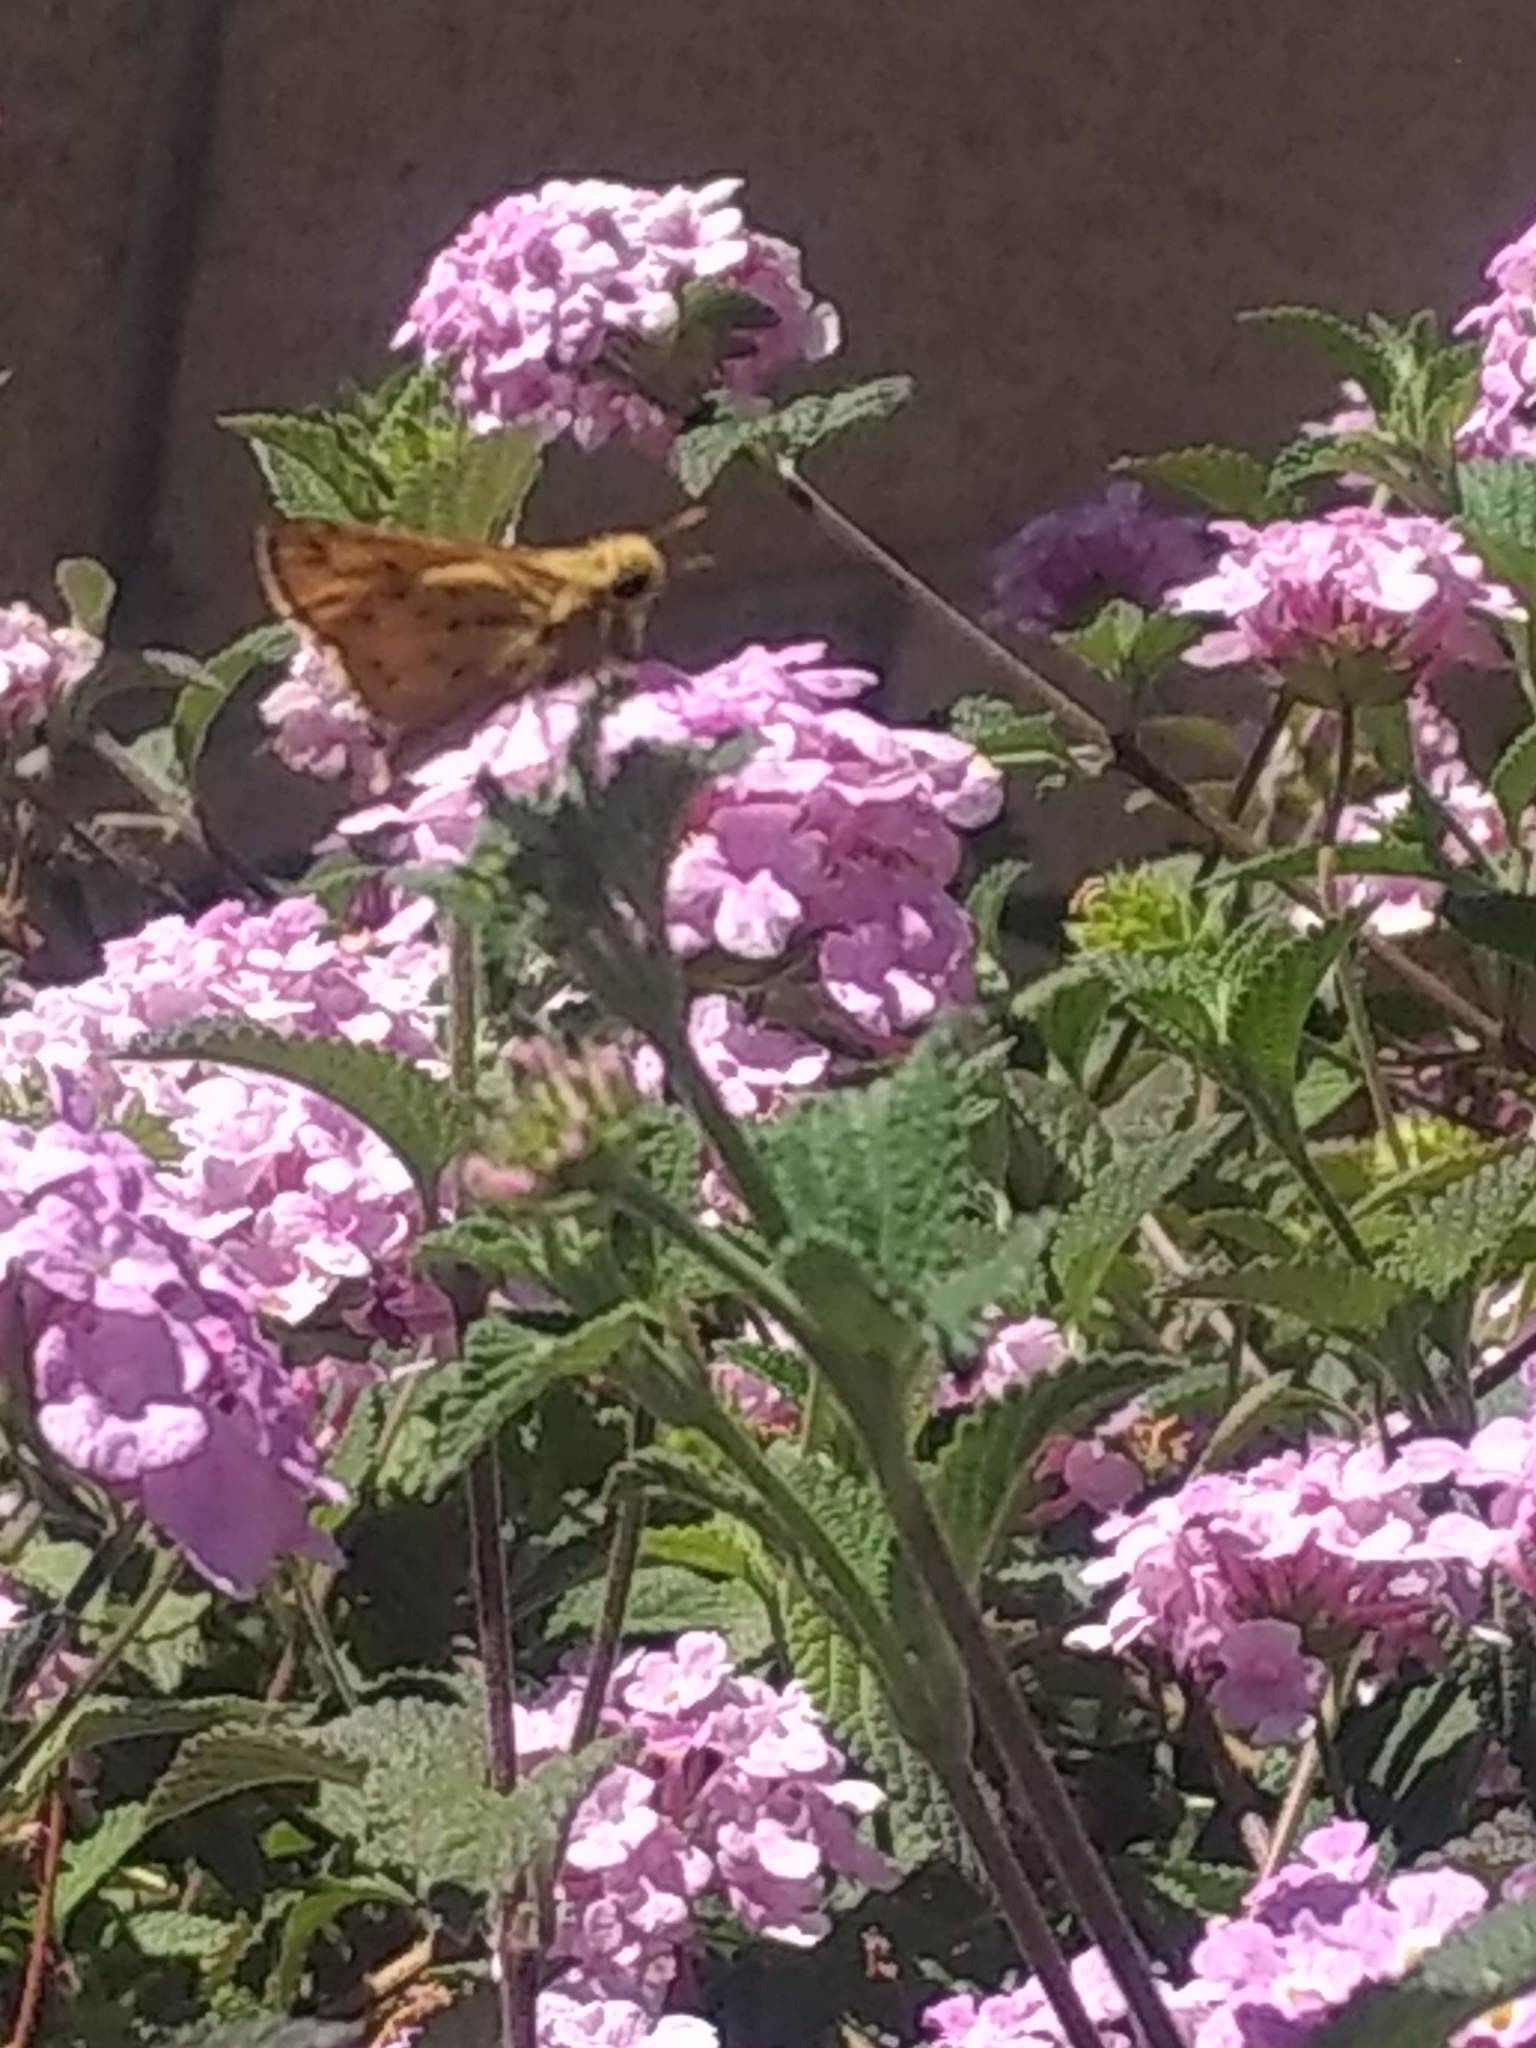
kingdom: Animalia
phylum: Arthropoda
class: Insecta
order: Lepidoptera
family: Hesperiidae
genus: Hylephila
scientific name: Hylephila phyleus
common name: Fiery skipper
